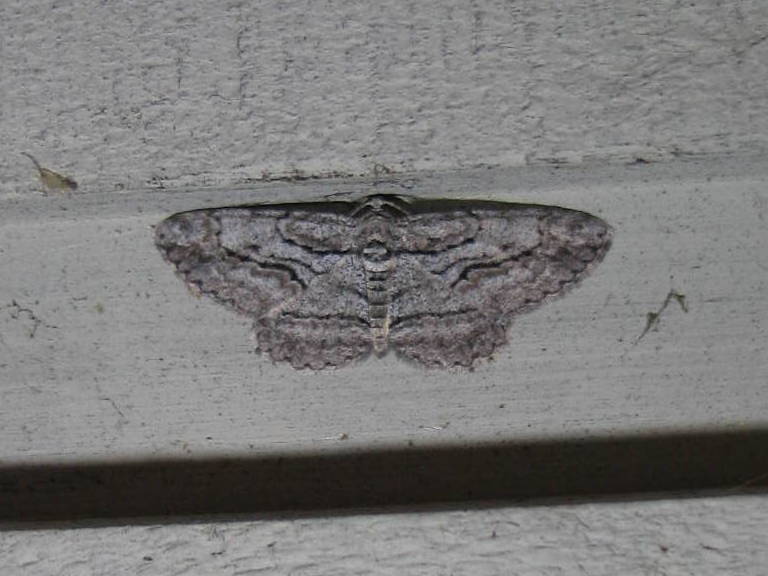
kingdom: Animalia
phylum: Arthropoda
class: Insecta
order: Lepidoptera
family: Geometridae
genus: Anavitrinella
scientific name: Anavitrinella pampinaria
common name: Common gray
